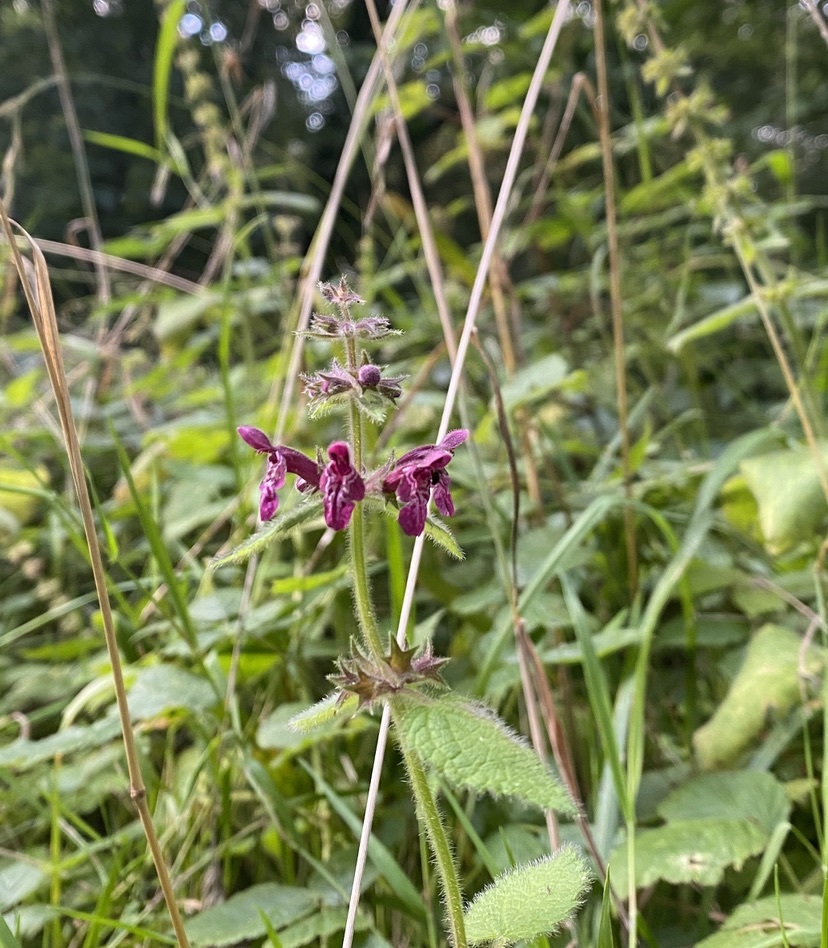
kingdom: Plantae
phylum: Tracheophyta
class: Magnoliopsida
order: Lamiales
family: Lamiaceae
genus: Stachys
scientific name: Stachys sylvatica
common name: Hedge woundwort
